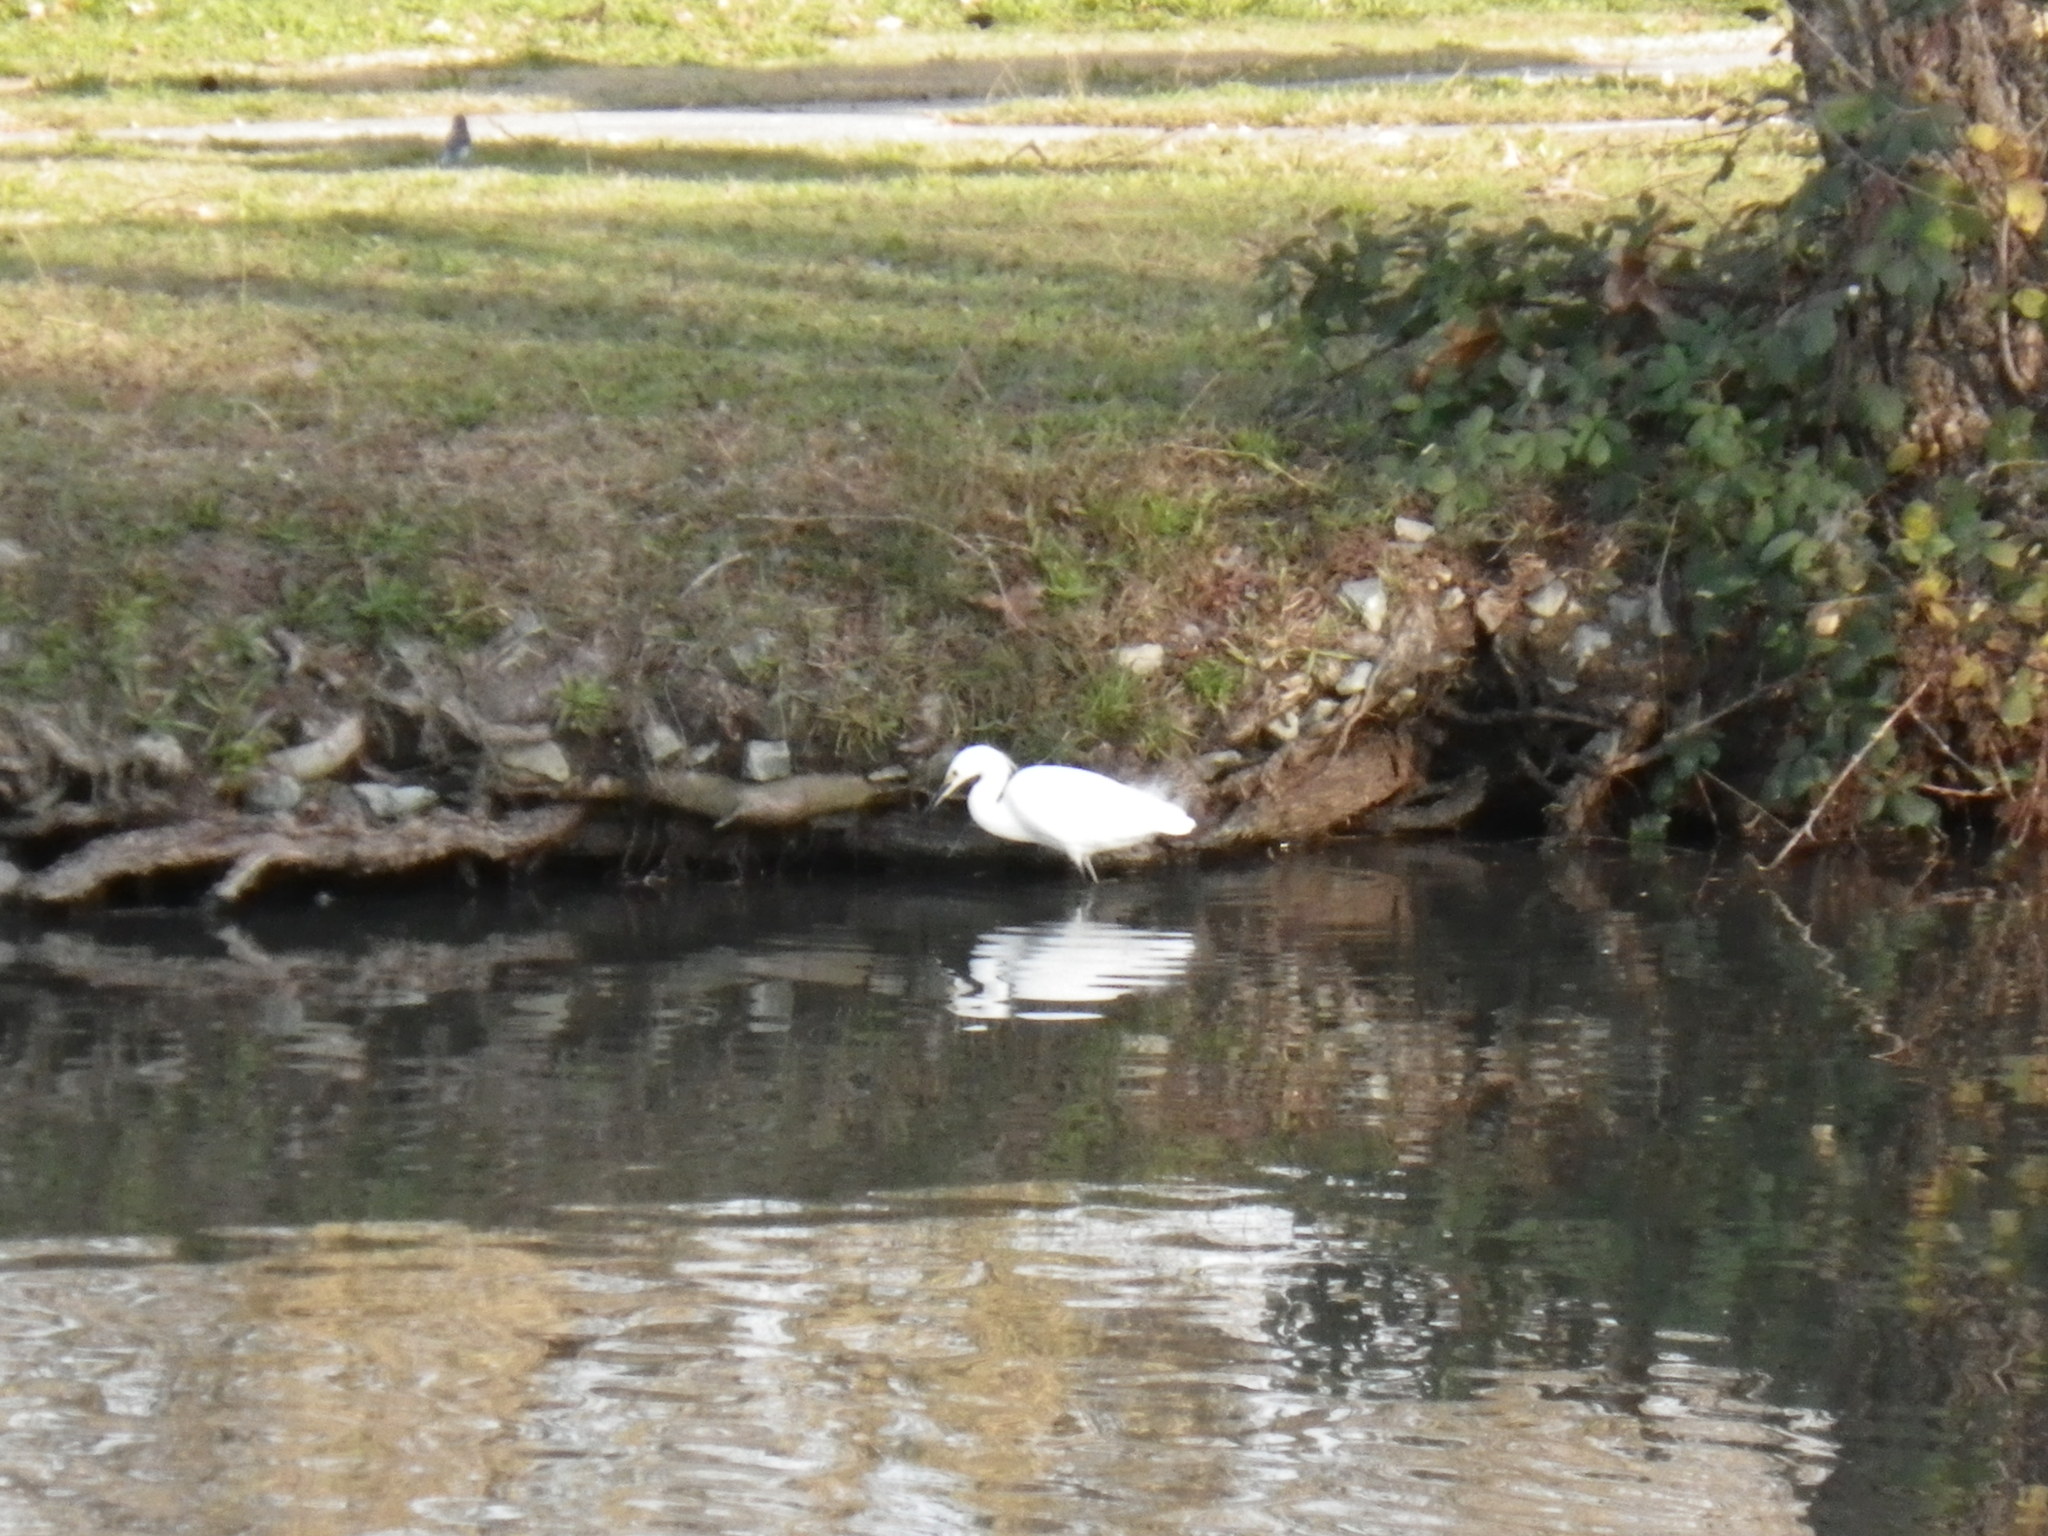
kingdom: Animalia
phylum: Chordata
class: Aves
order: Pelecaniformes
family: Ardeidae
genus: Egretta
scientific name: Egretta thula
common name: Snowy egret
